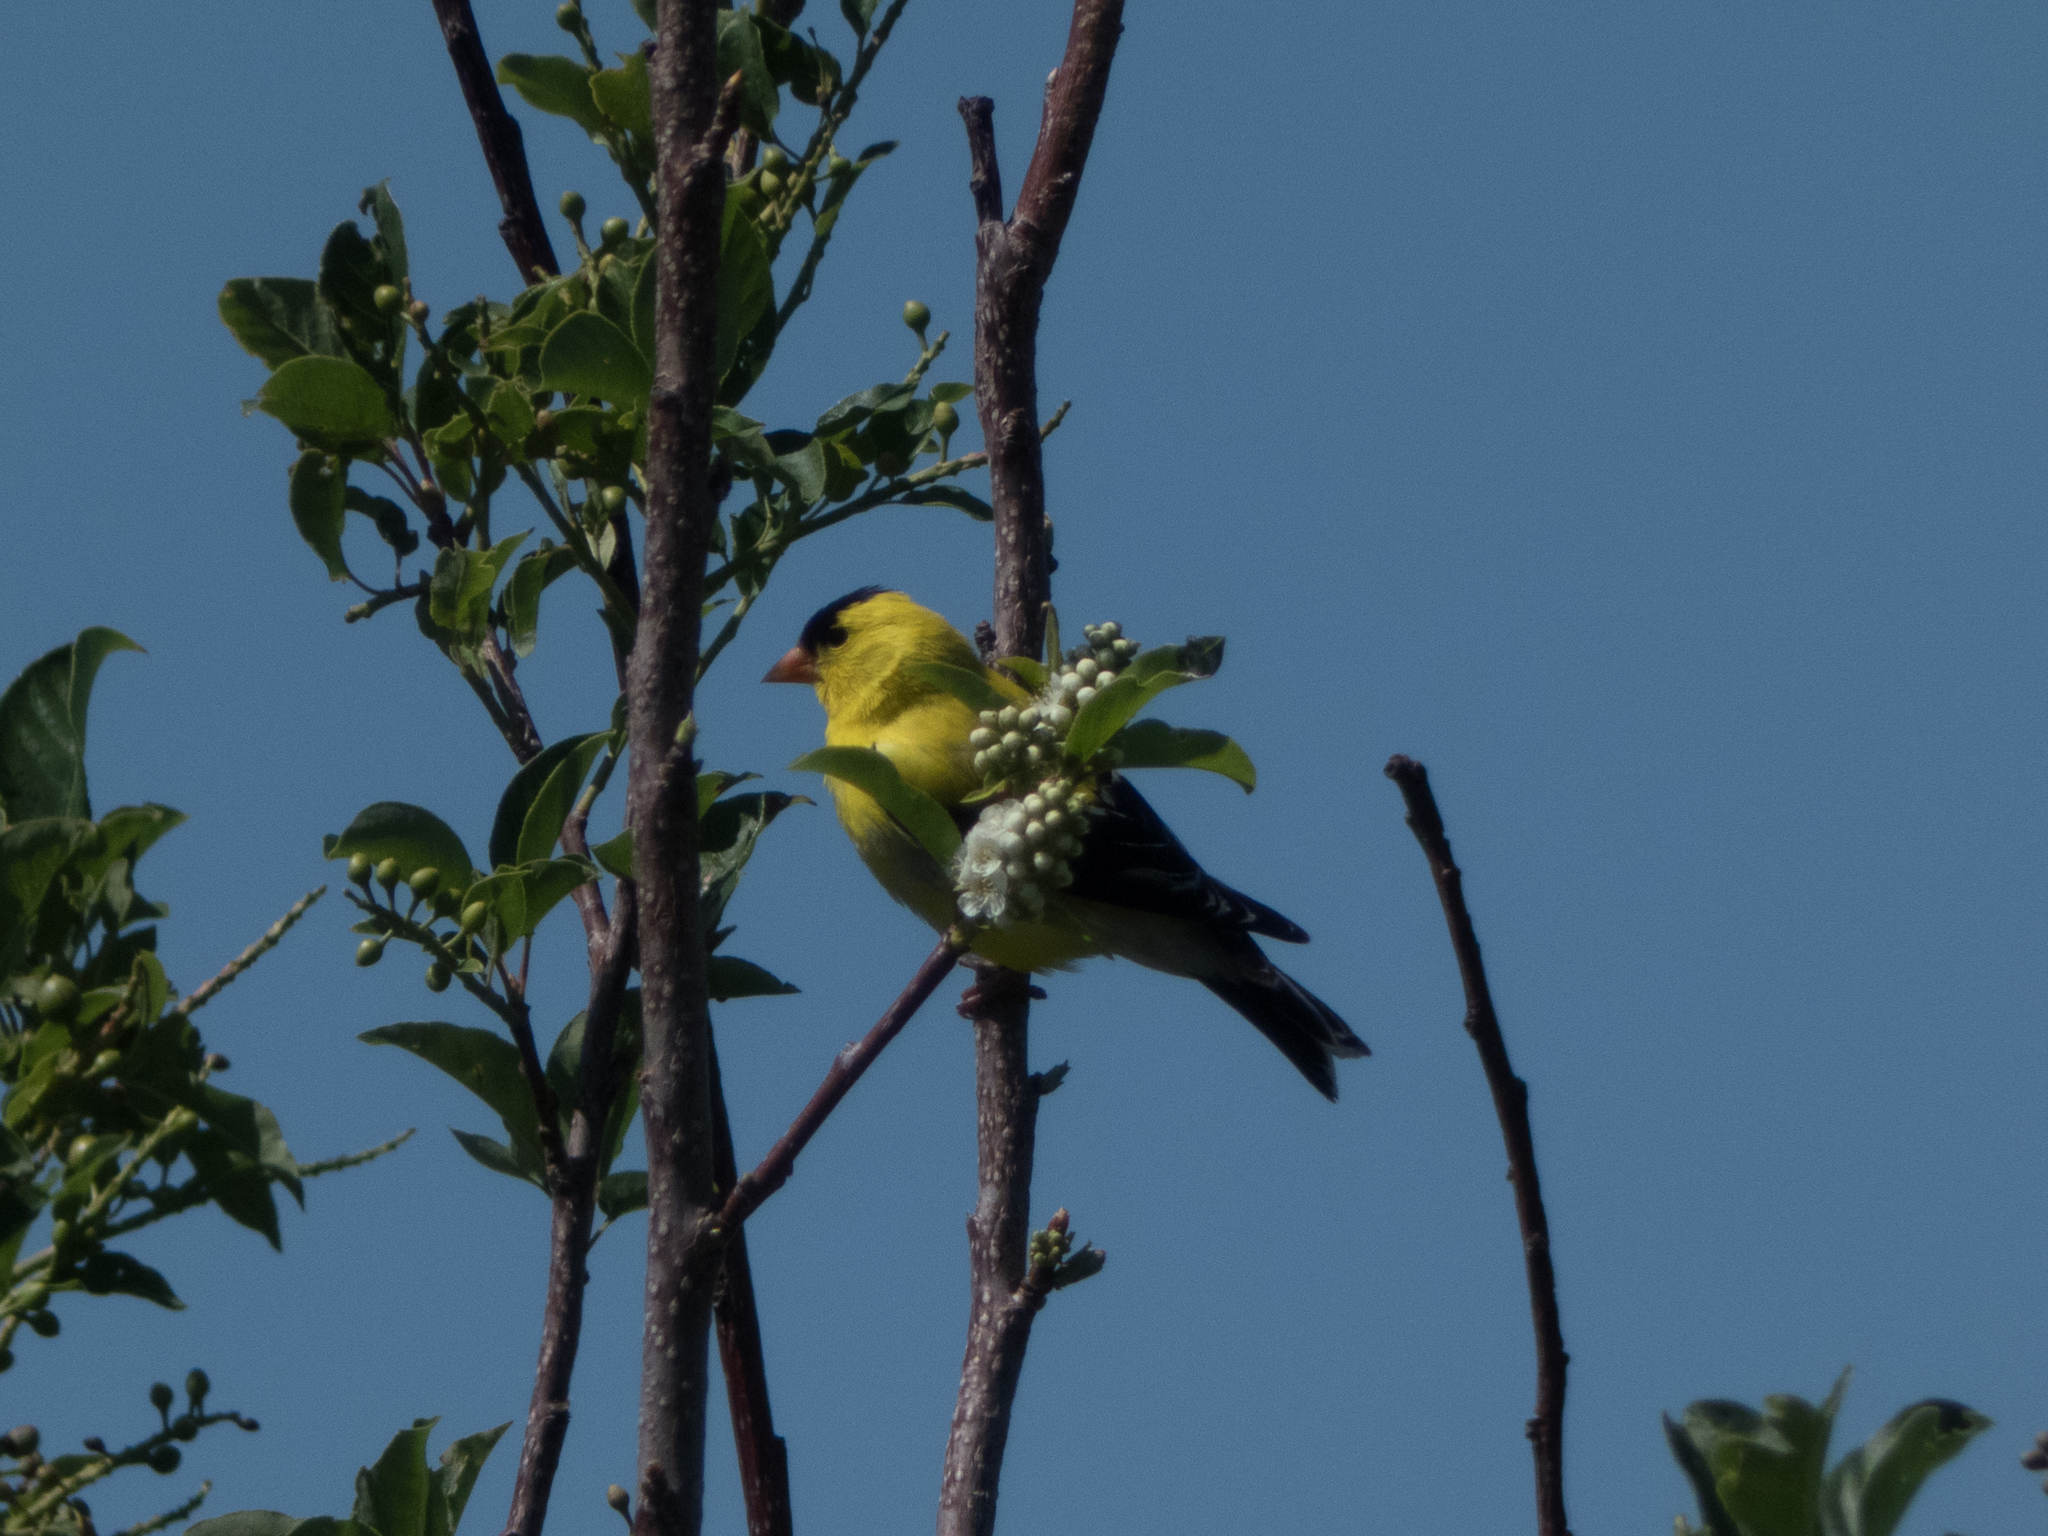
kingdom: Animalia
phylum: Chordata
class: Aves
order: Passeriformes
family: Fringillidae
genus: Spinus
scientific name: Spinus tristis
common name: American goldfinch
